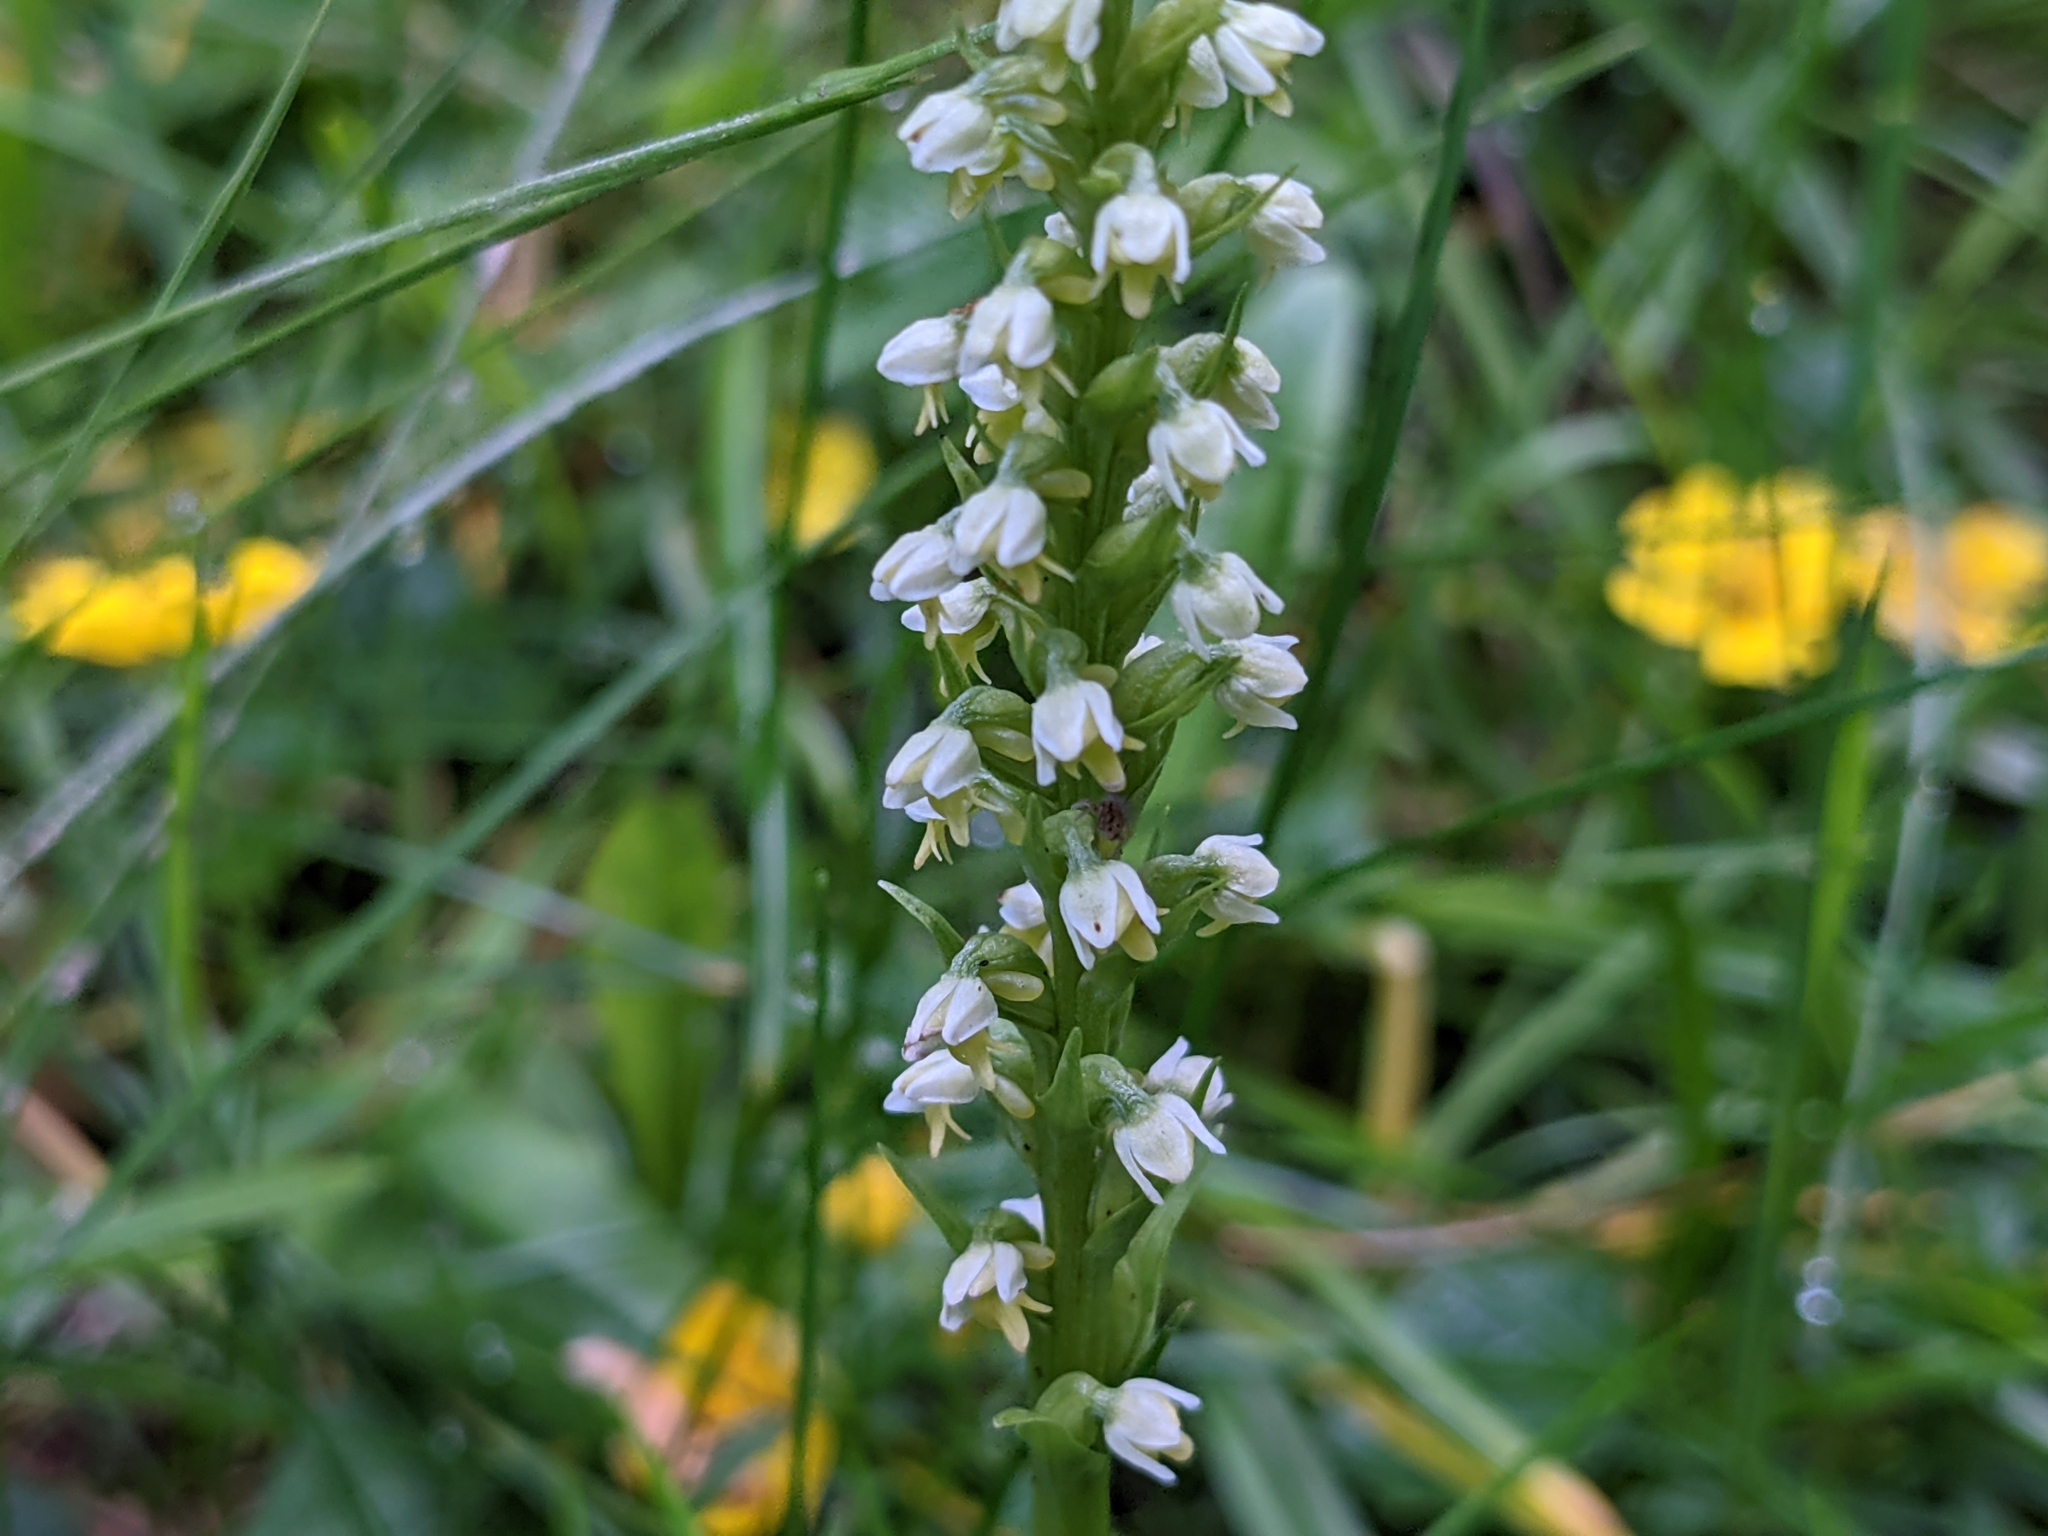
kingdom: Plantae
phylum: Tracheophyta
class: Liliopsida
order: Asparagales
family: Orchidaceae
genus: Pseudorchis
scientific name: Pseudorchis albida
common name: Small-white orchid
